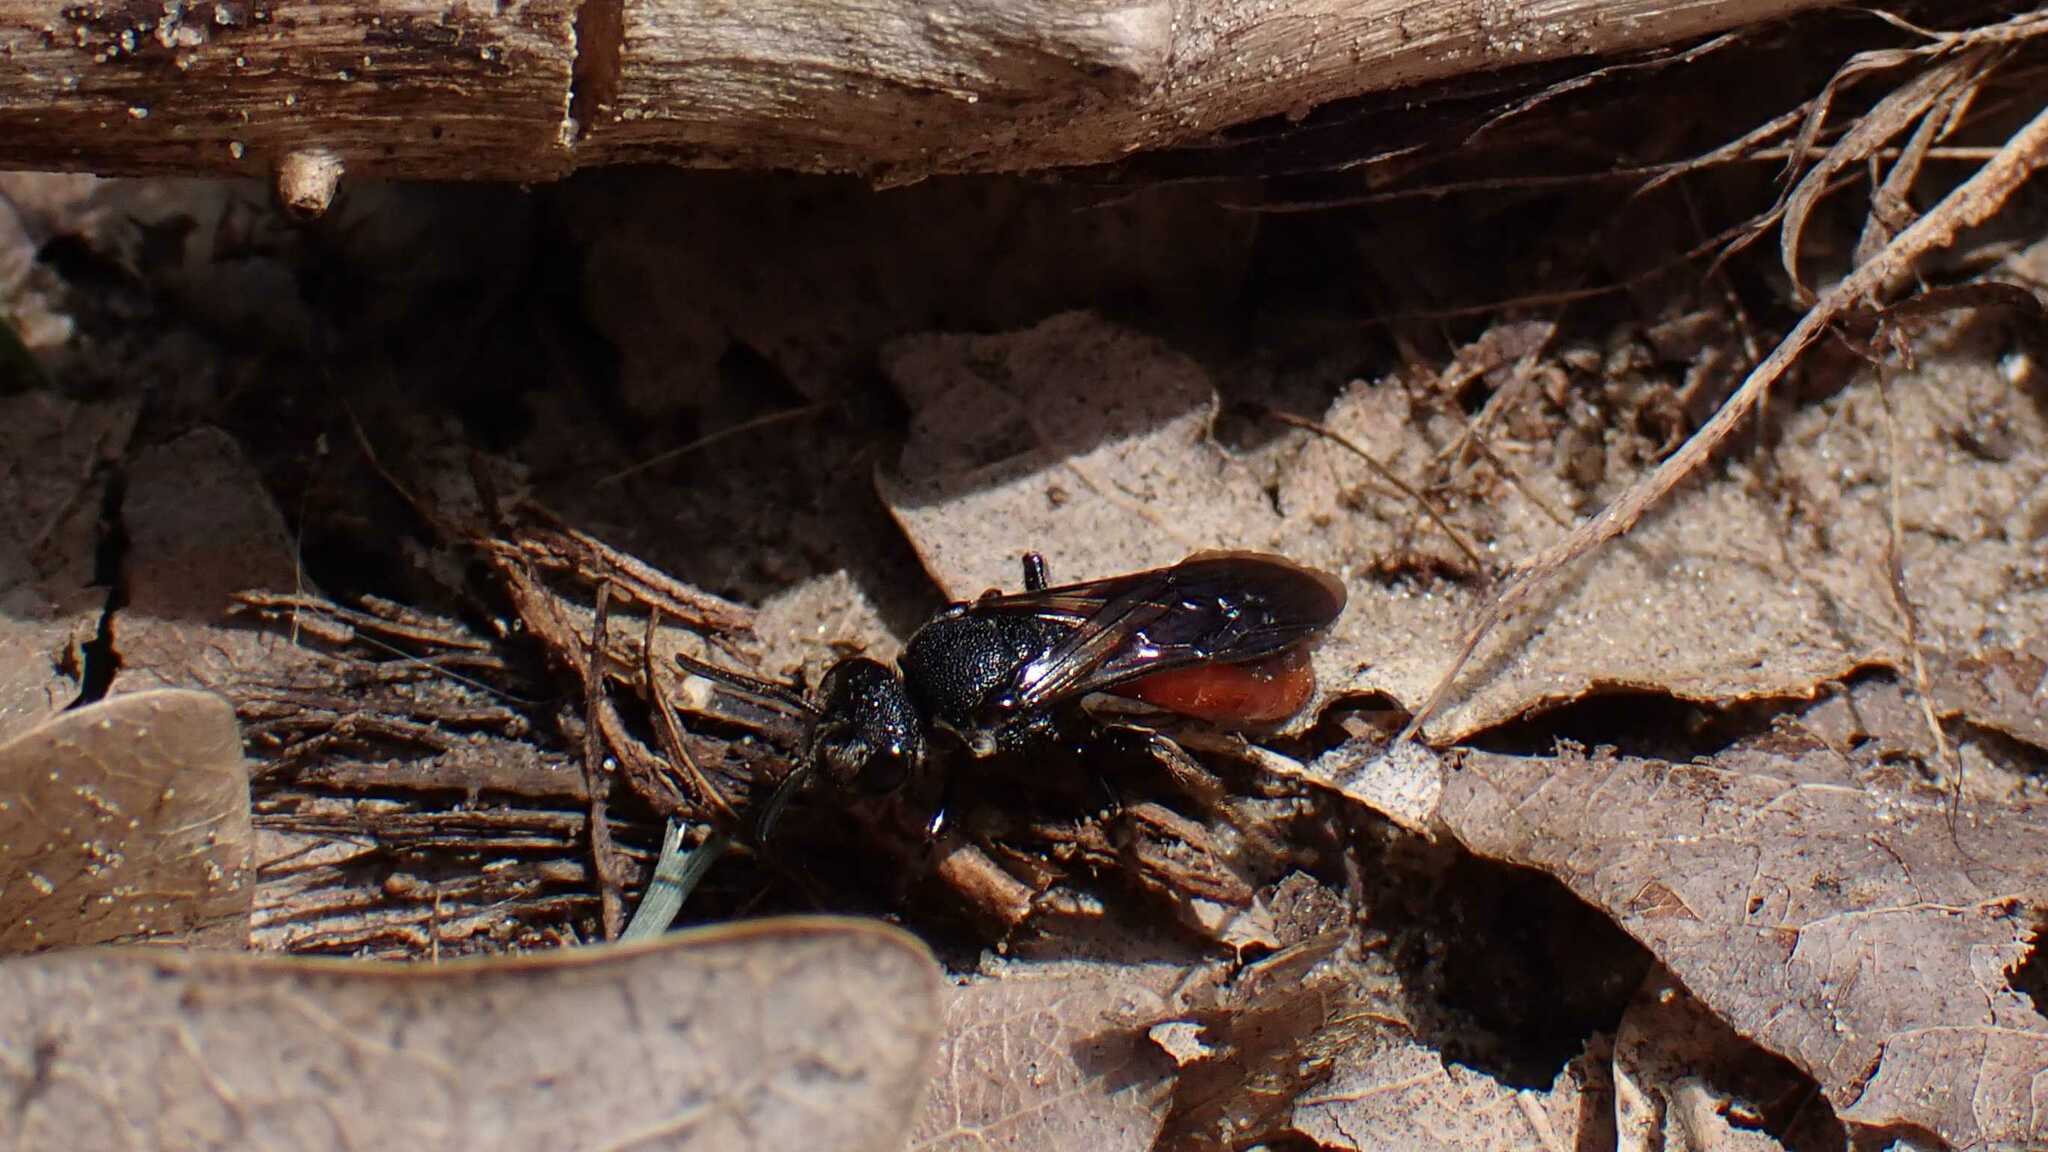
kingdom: Animalia
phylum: Arthropoda
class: Insecta
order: Hymenoptera
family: Halictidae
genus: Sphecodes
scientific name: Sphecodes albilabris
